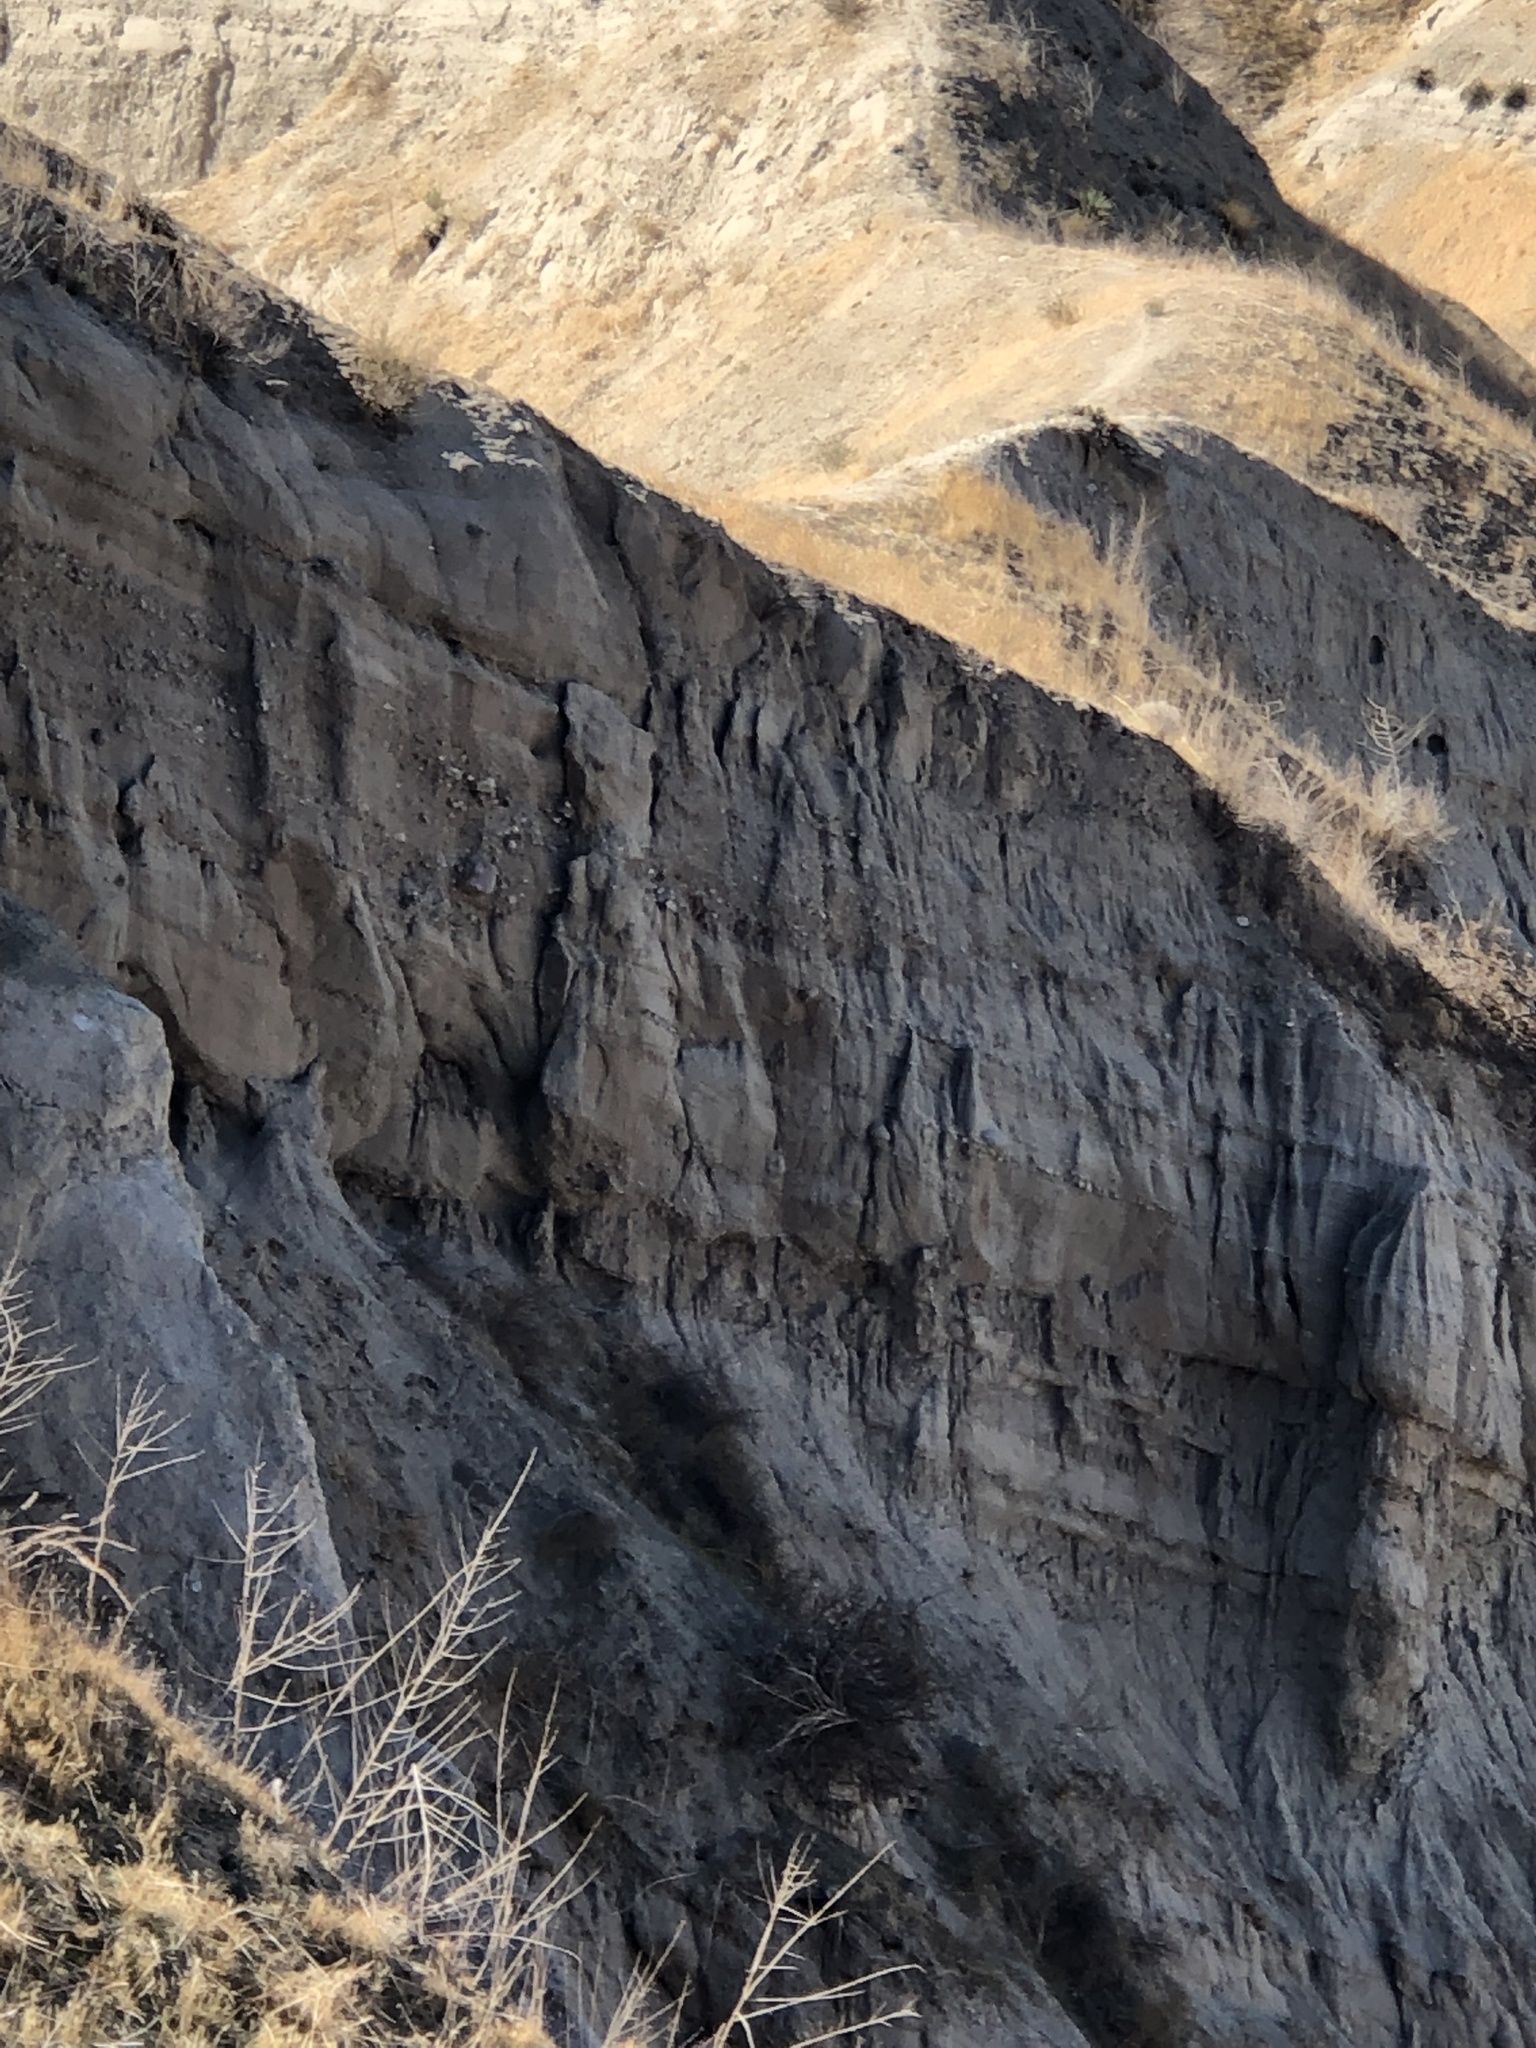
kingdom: Plantae
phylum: Tracheophyta
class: Magnoliopsida
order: Caryophyllales
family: Cactaceae
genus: Opuntia
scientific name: Opuntia basilaris
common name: Beavertail prickly-pear
